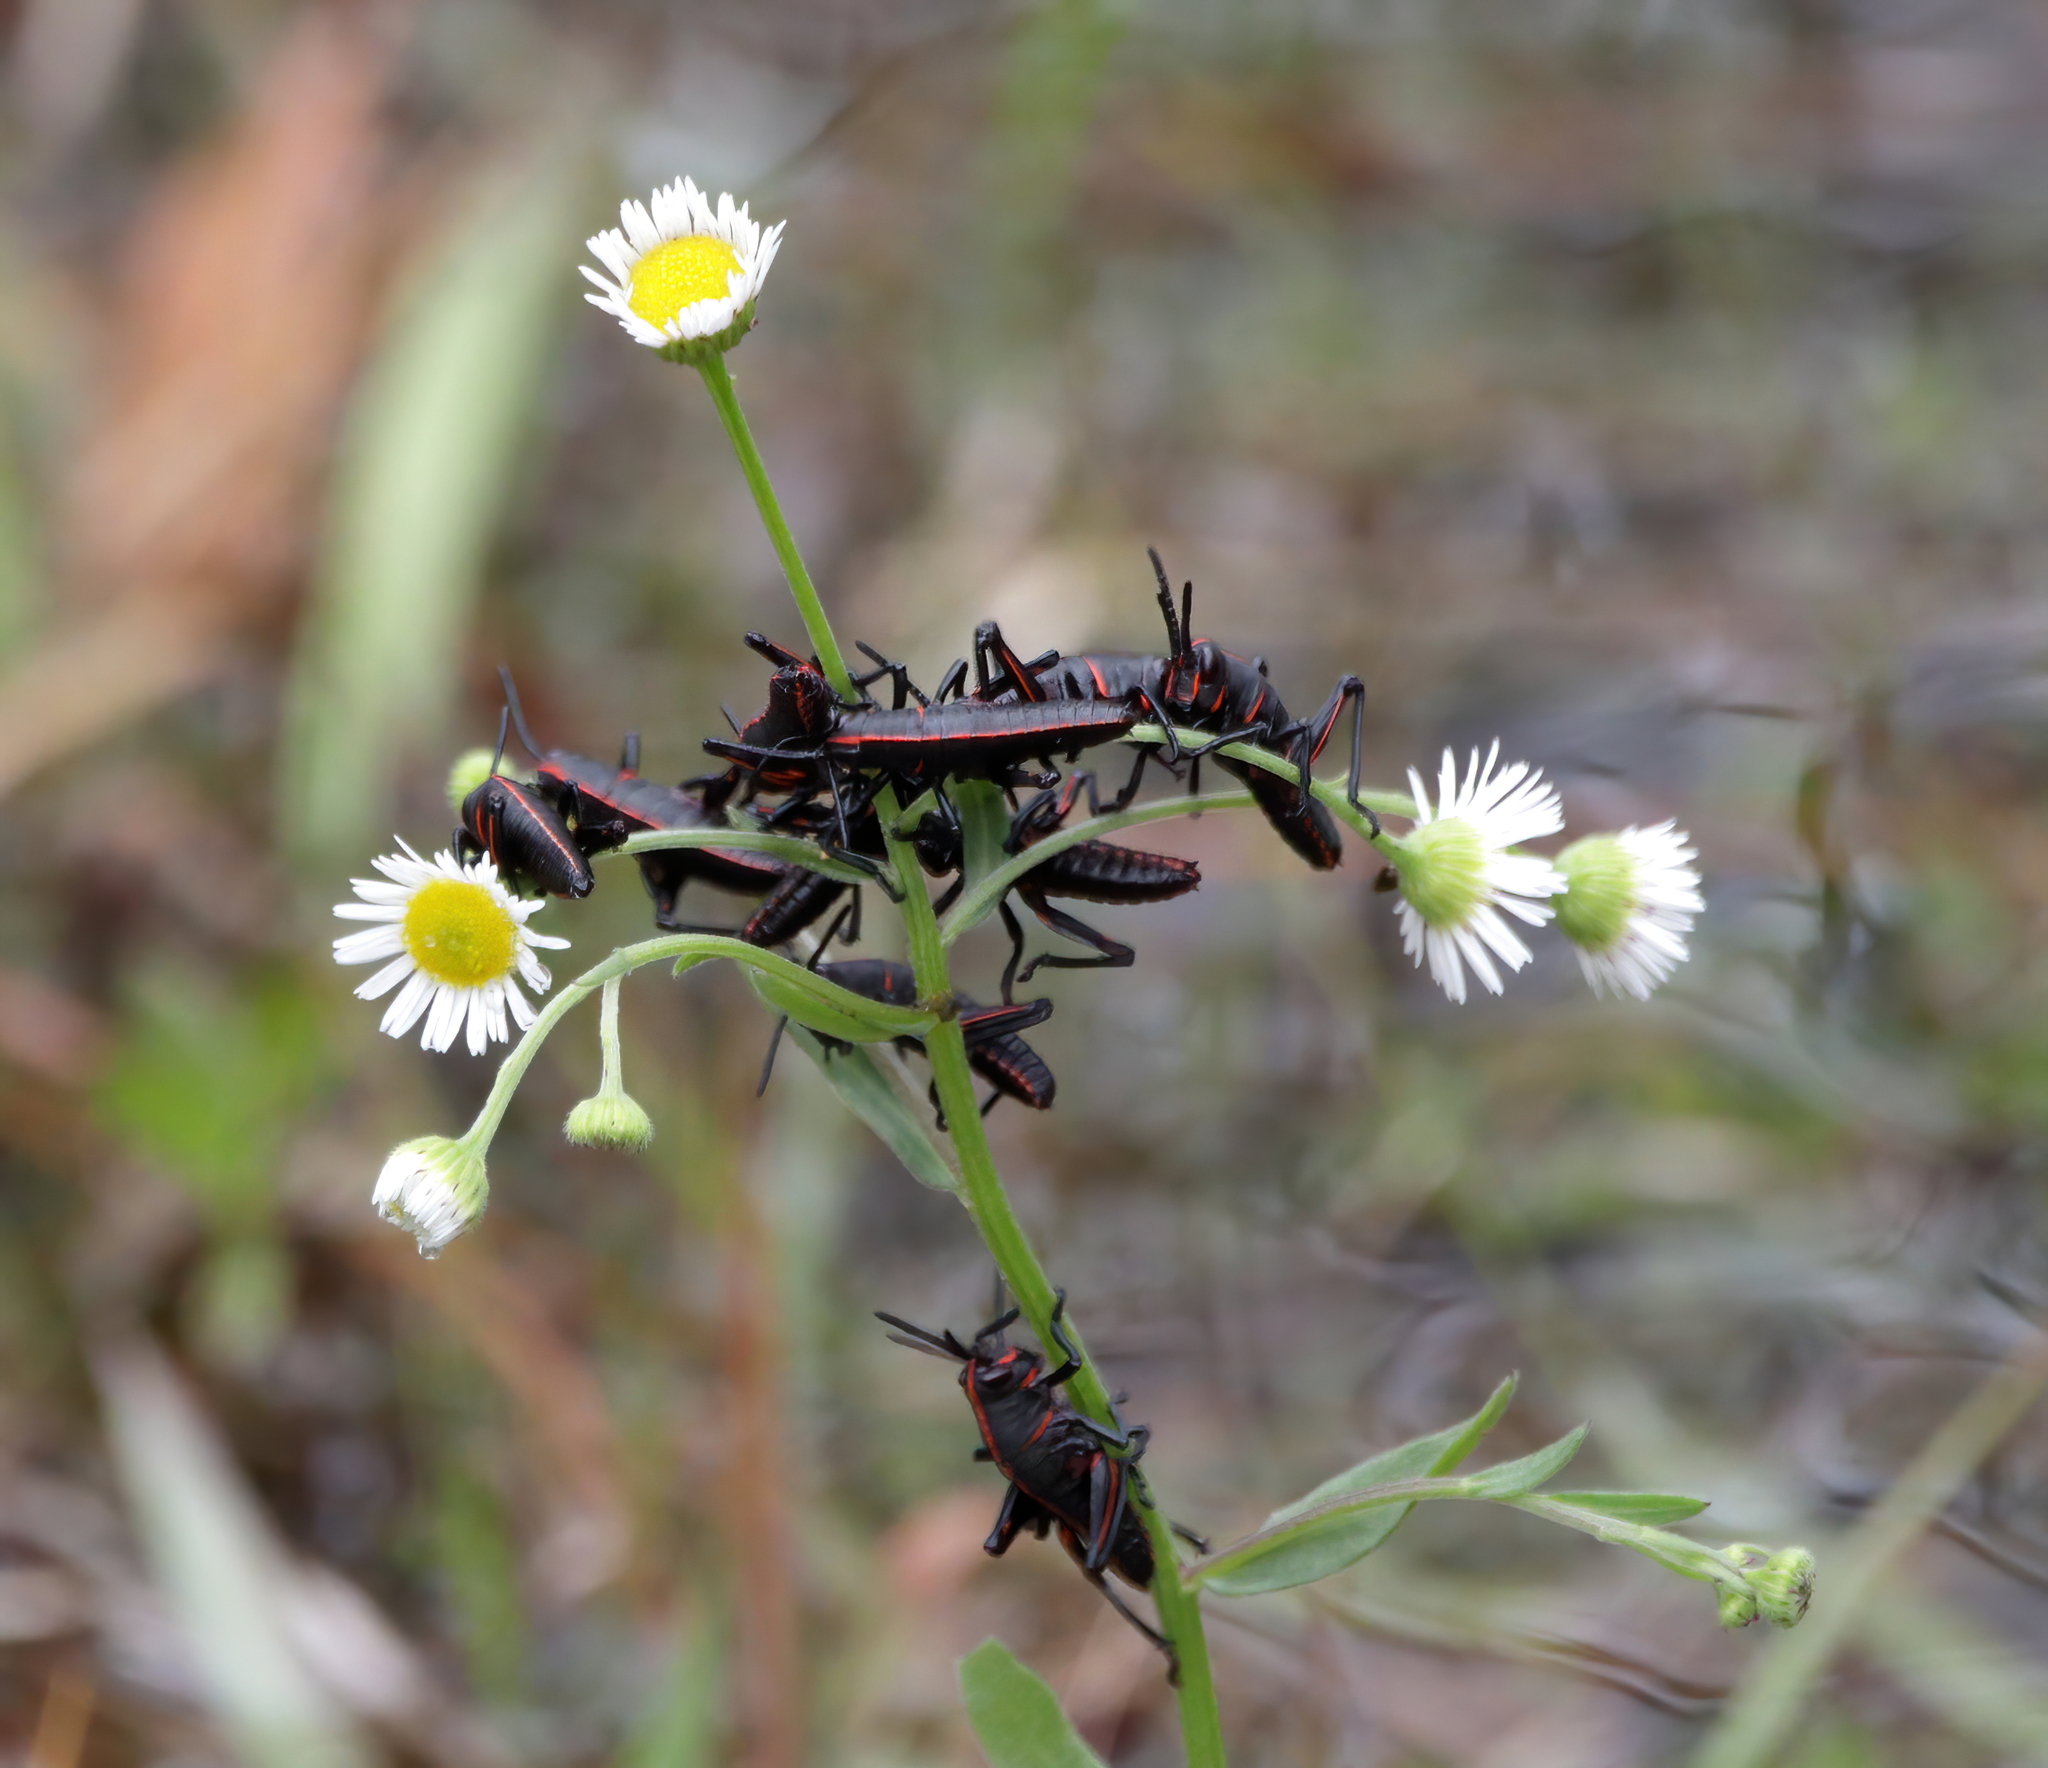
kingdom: Animalia
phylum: Arthropoda
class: Insecta
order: Orthoptera
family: Romaleidae
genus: Romalea
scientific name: Romalea microptera
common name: Eastern lubber grasshopper
